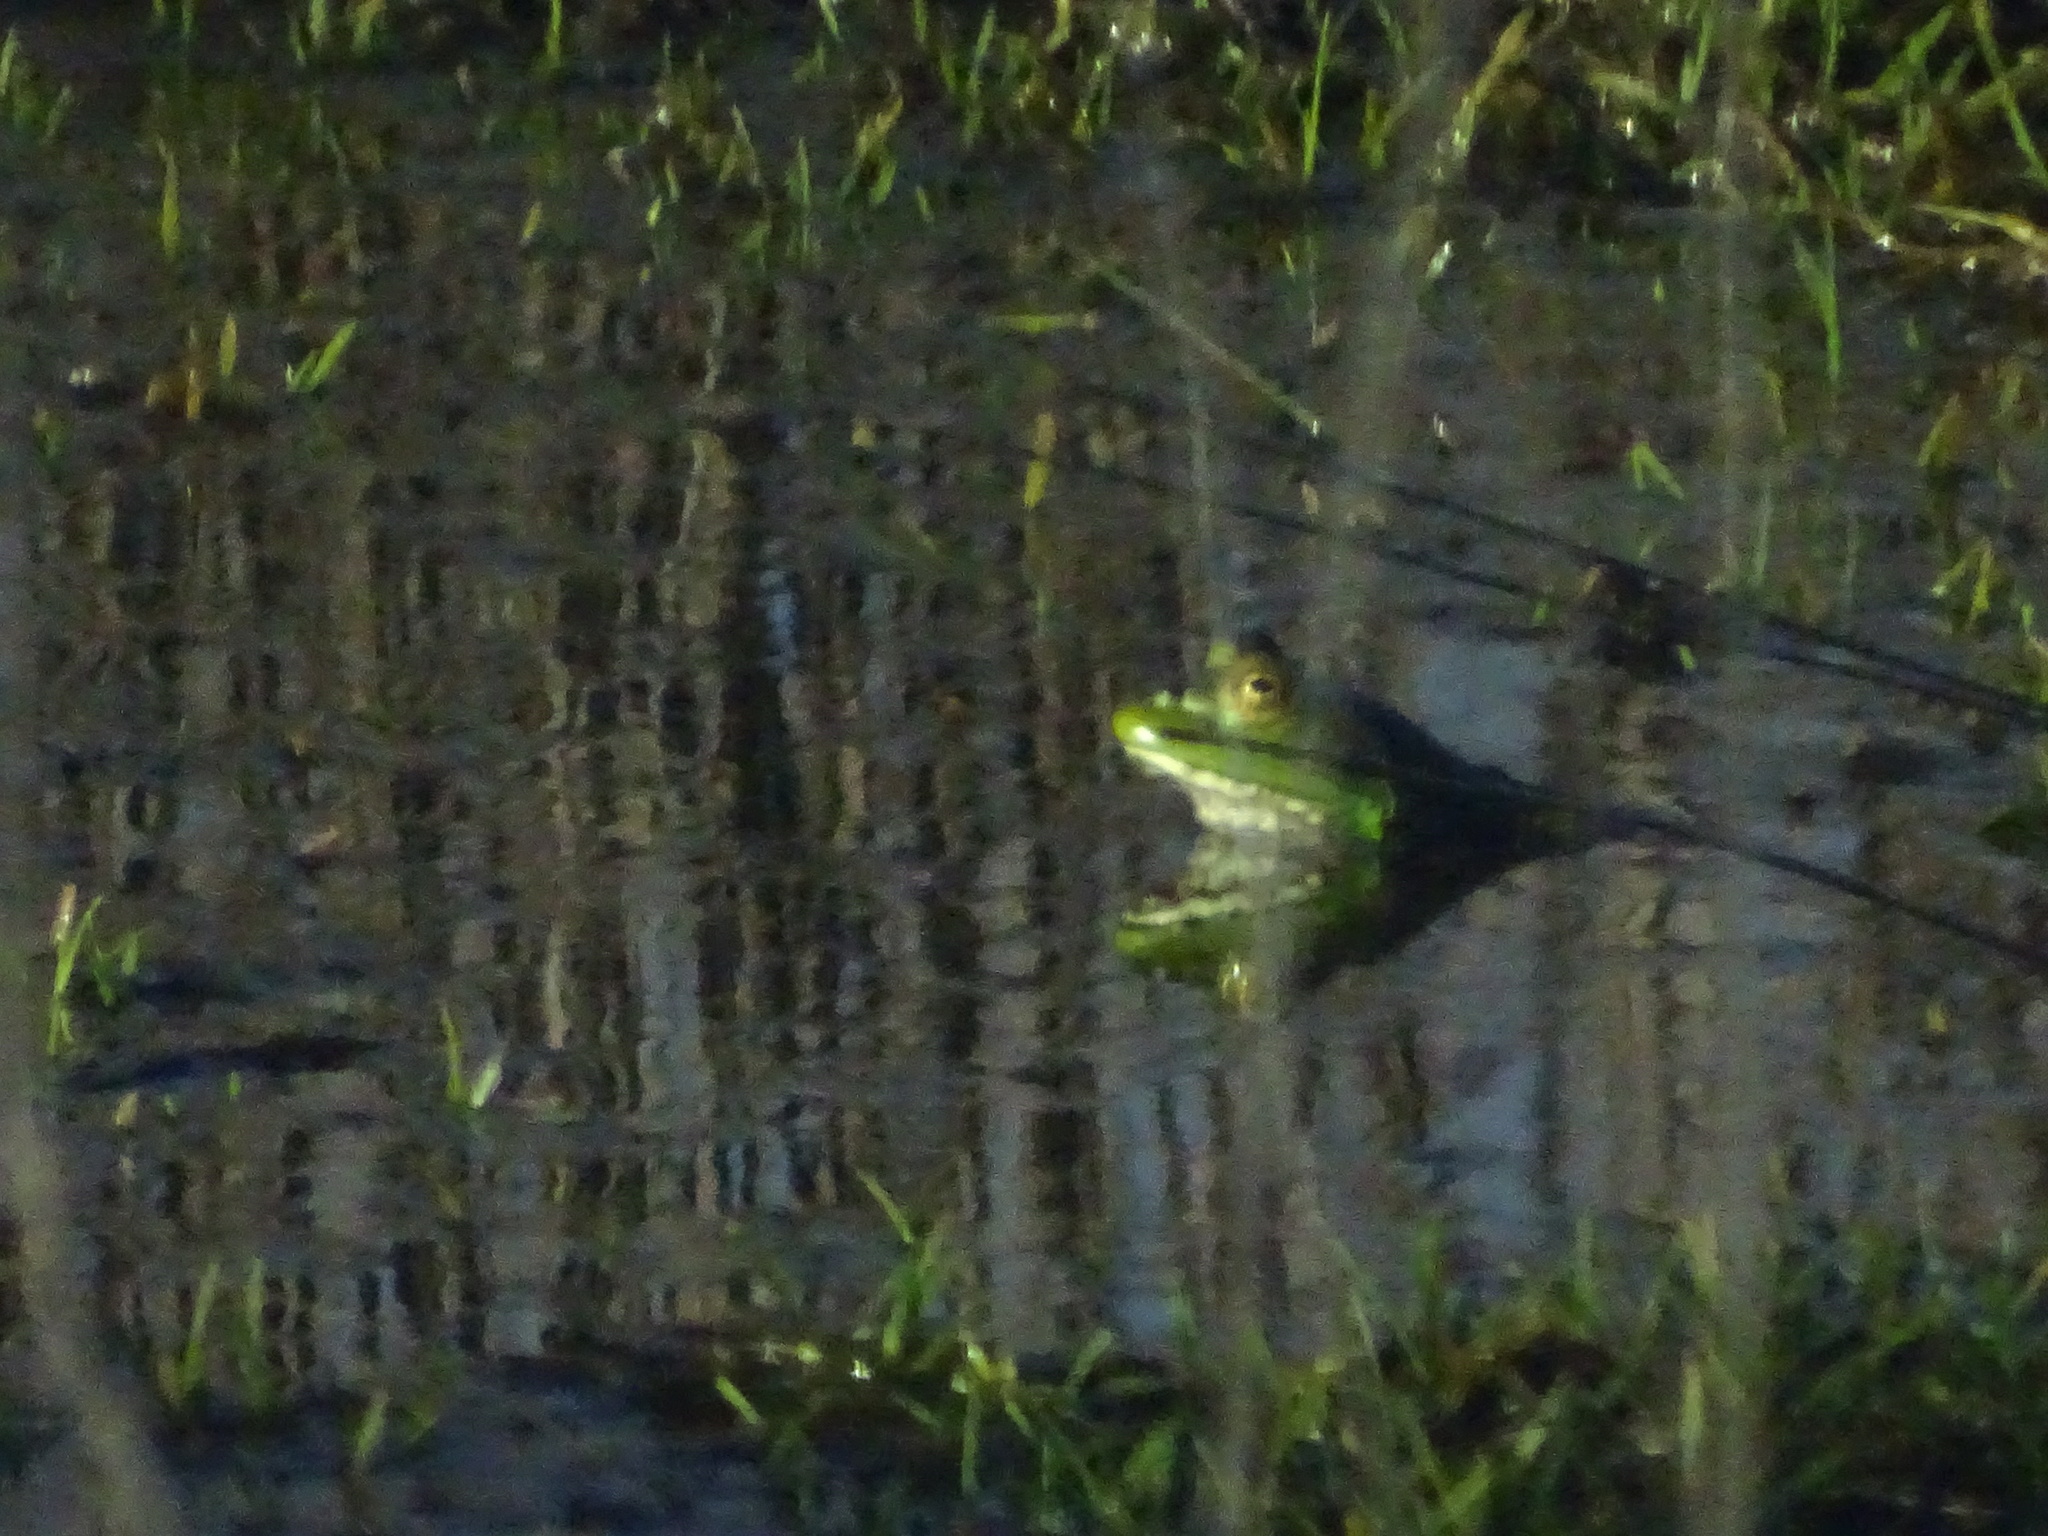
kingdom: Animalia
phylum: Chordata
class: Amphibia
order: Anura
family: Ranidae
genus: Lithobates
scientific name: Lithobates catesbeianus
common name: American bullfrog
